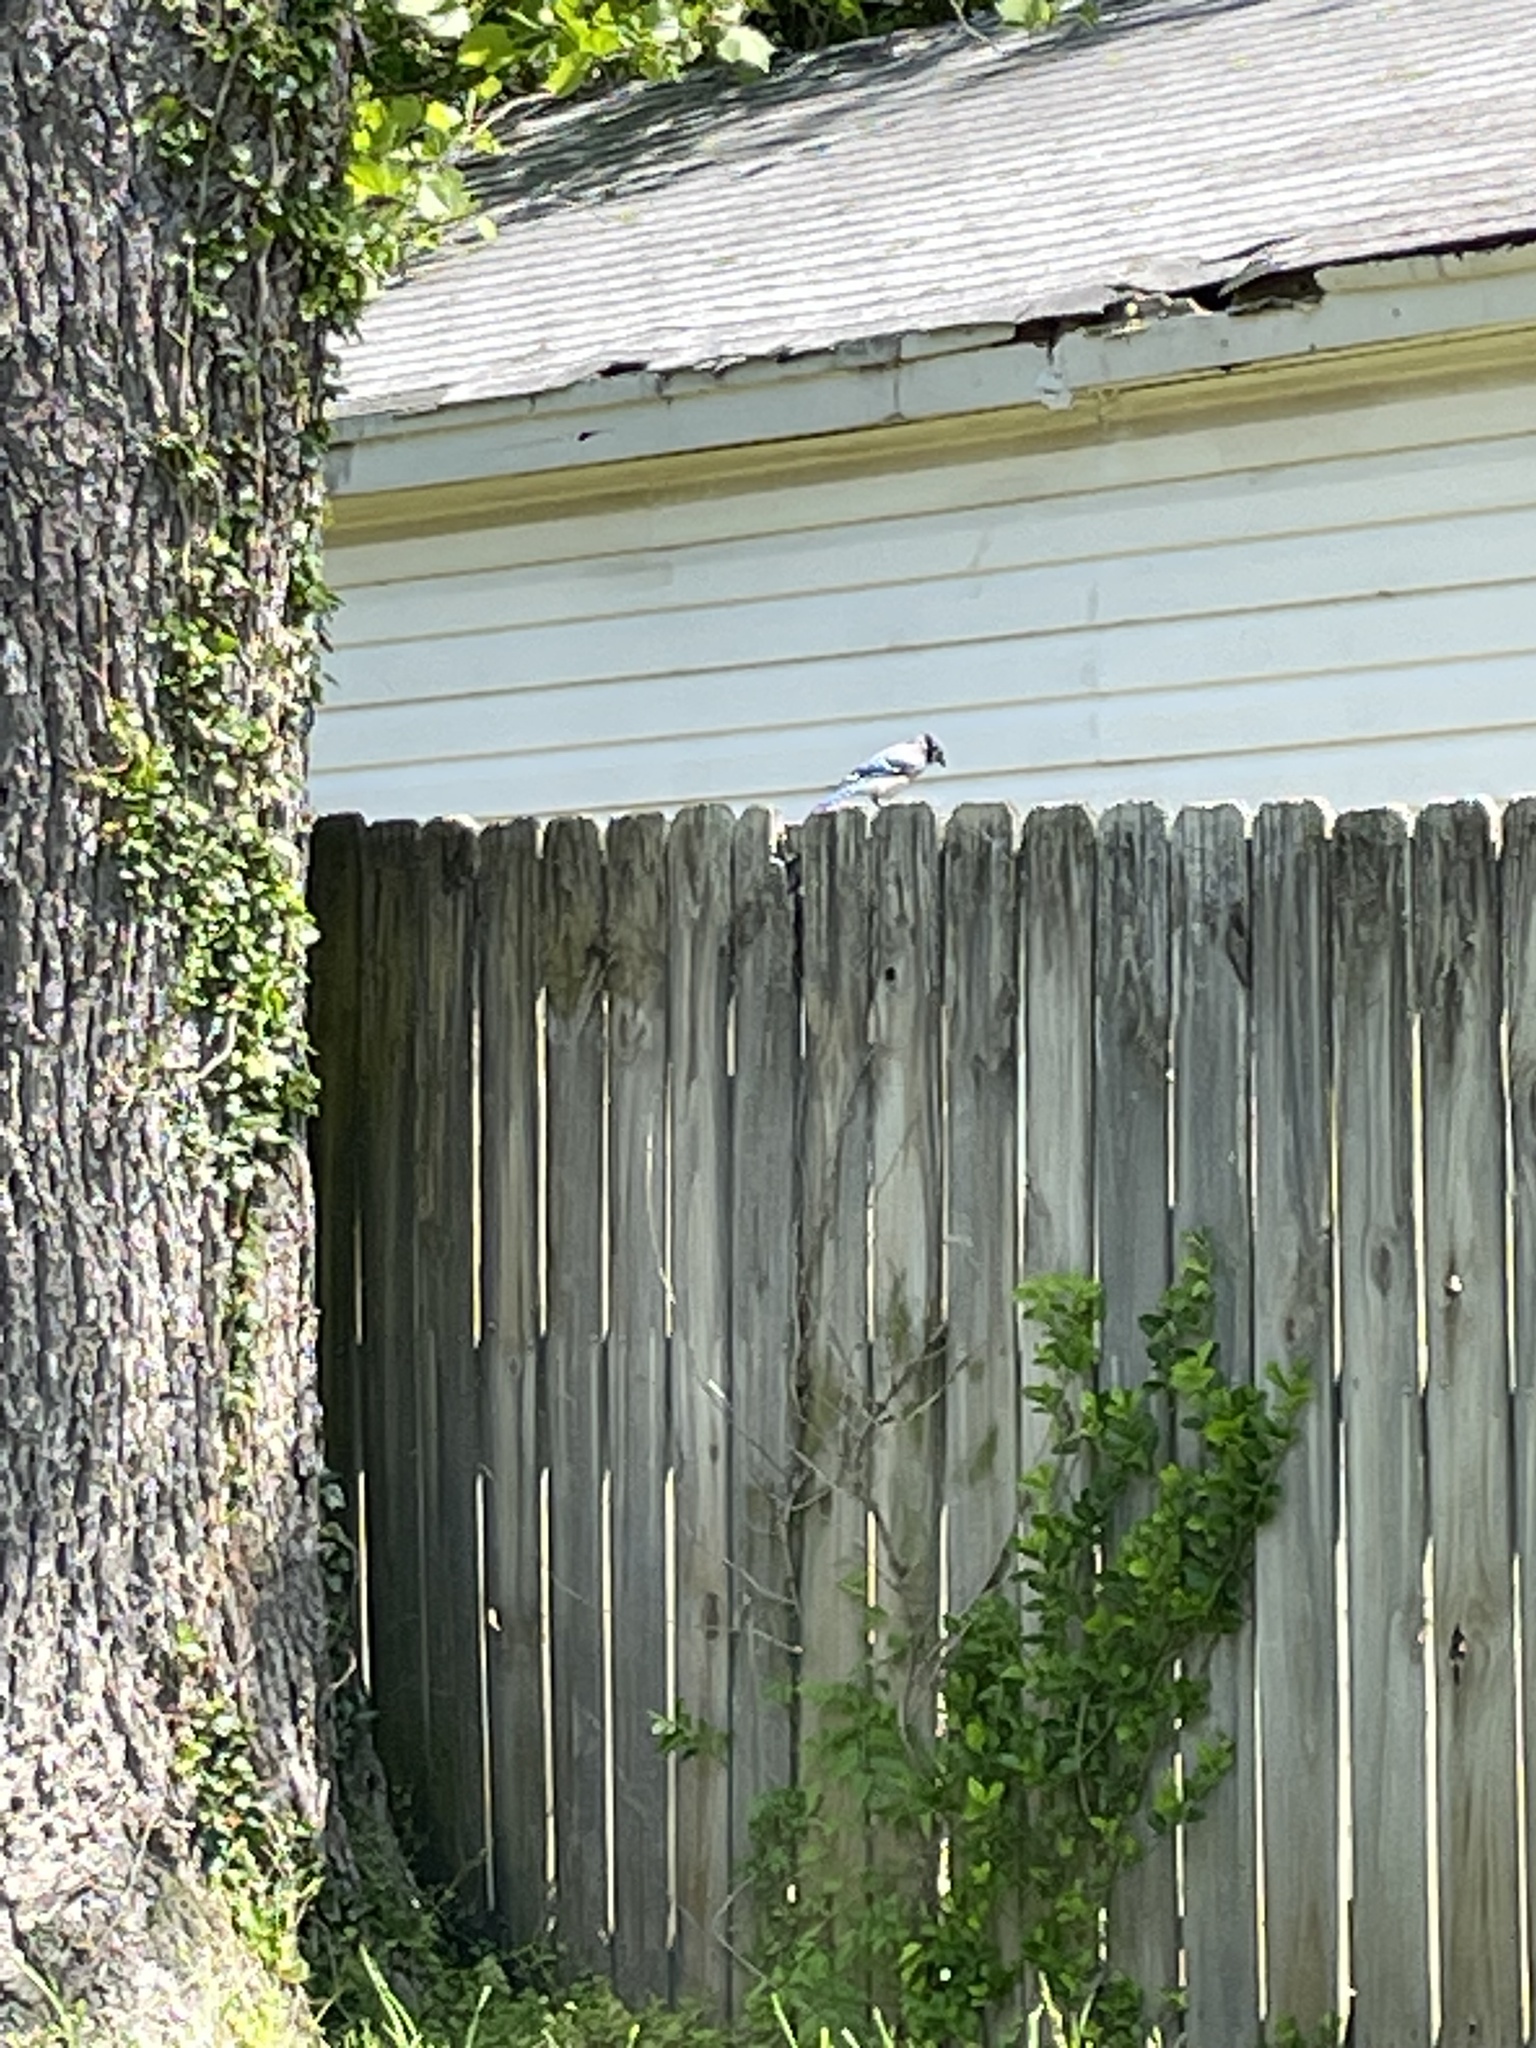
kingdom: Animalia
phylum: Chordata
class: Aves
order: Passeriformes
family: Corvidae
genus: Cyanocitta
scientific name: Cyanocitta cristata
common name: Blue jay
